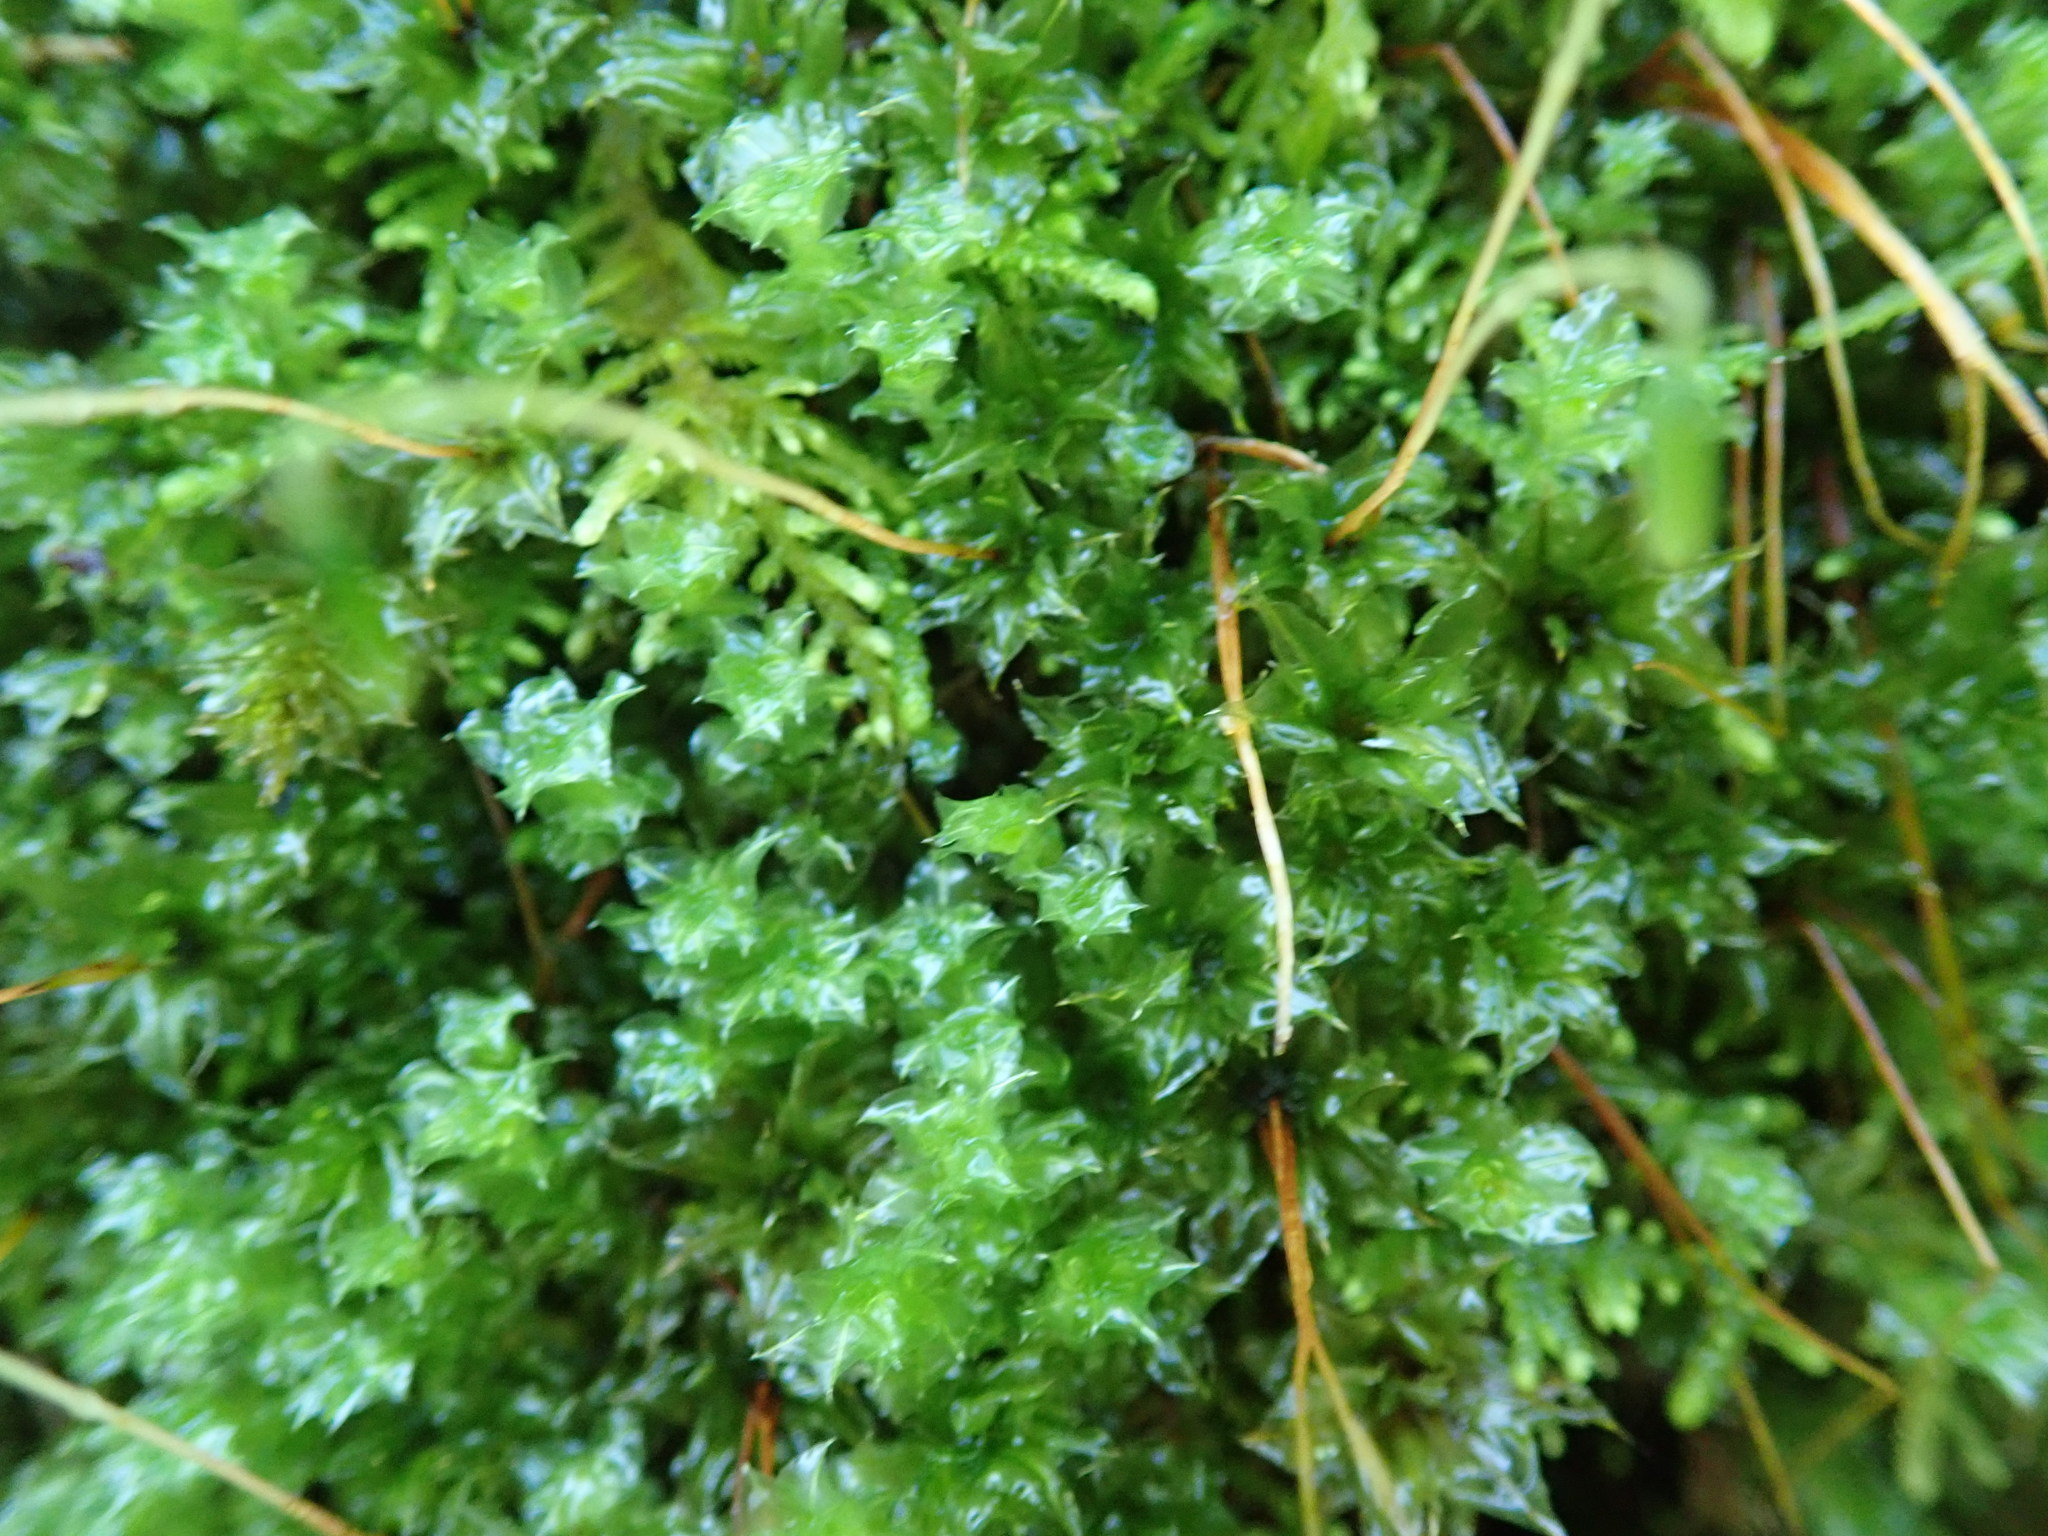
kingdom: Plantae
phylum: Bryophyta
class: Bryopsida
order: Bryales
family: Mniaceae
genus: Plagiomnium
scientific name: Plagiomnium venustum
